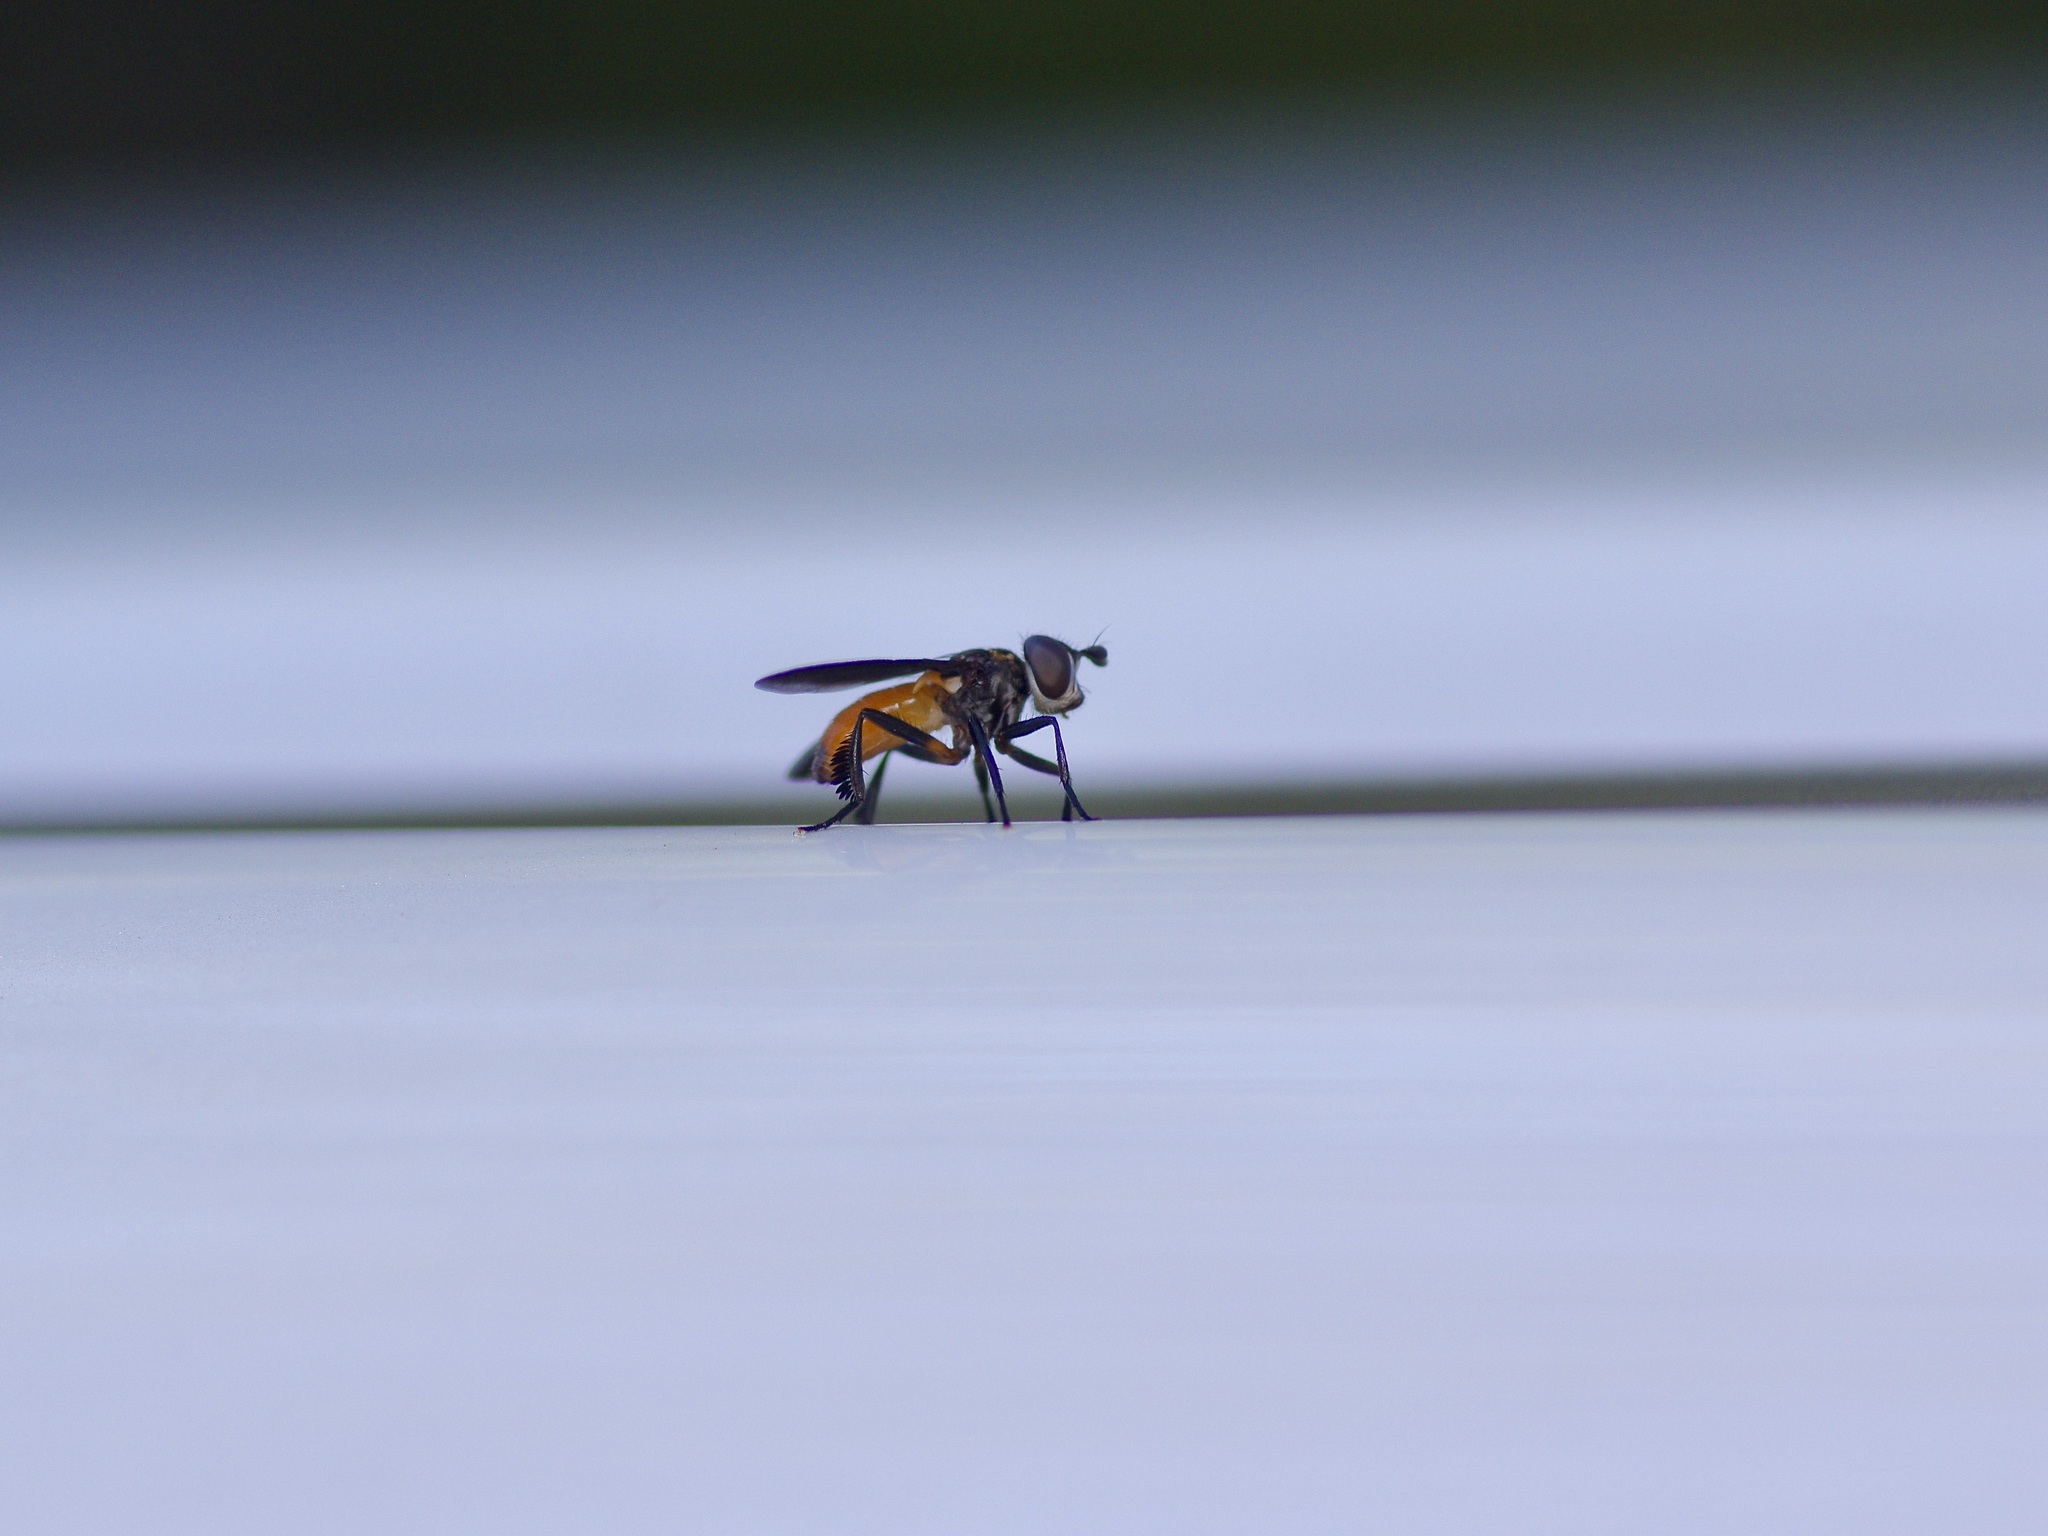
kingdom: Animalia
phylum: Arthropoda
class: Insecta
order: Diptera
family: Tachinidae
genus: Trichopoda
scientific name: Trichopoda pennipes
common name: Tachinid fly
